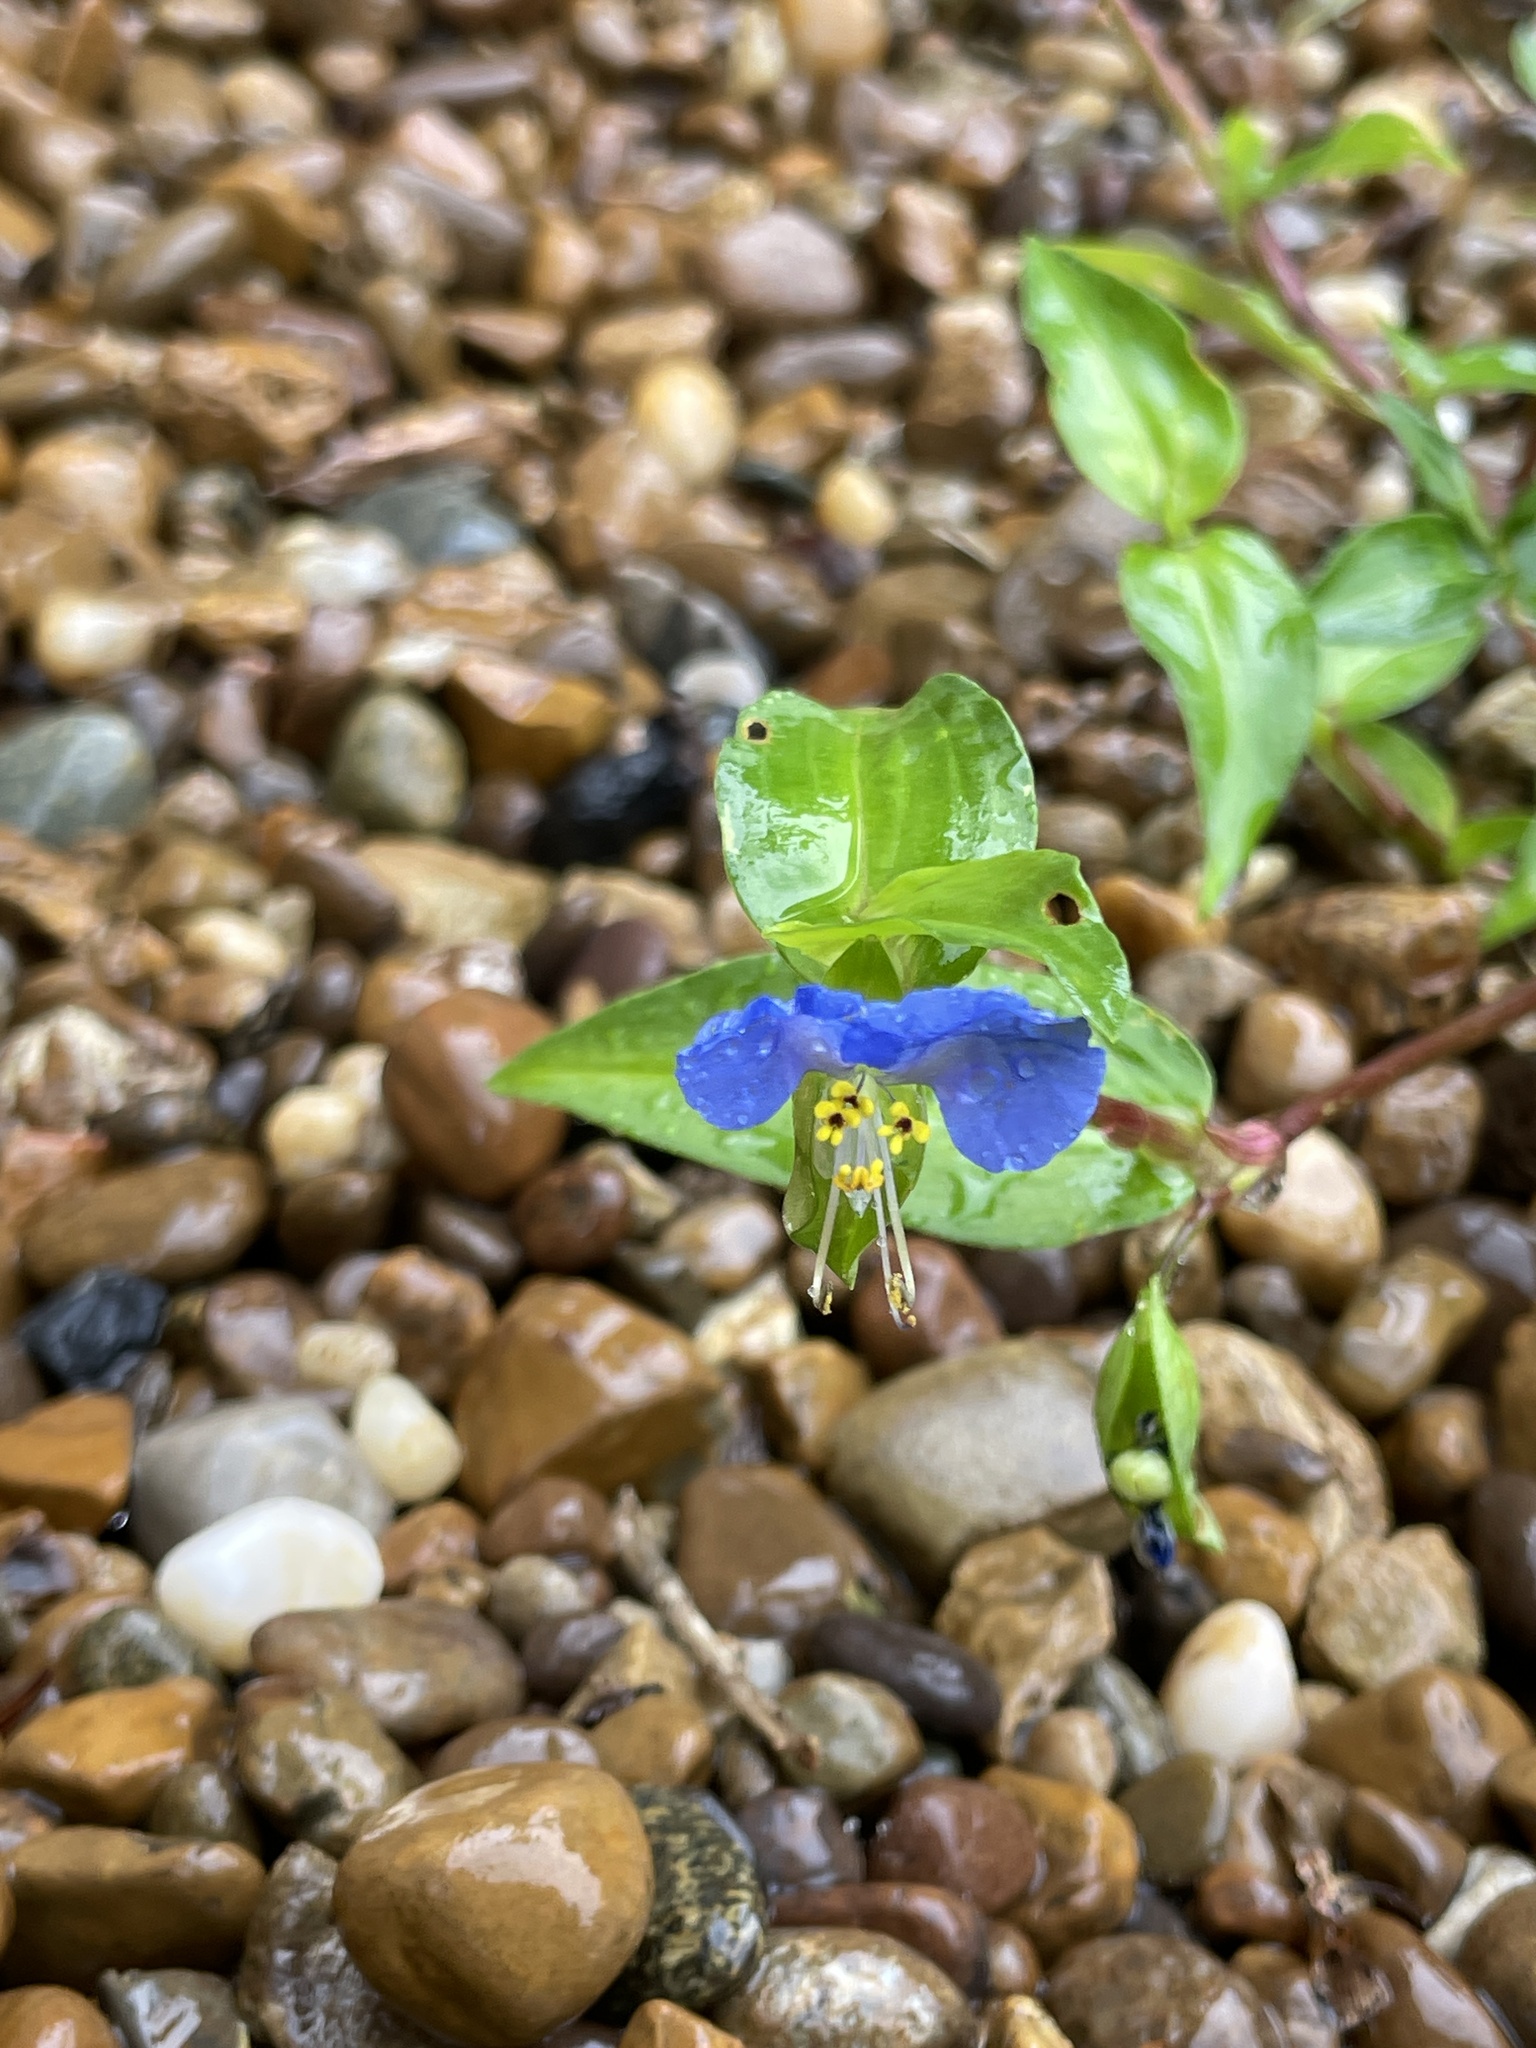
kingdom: Plantae
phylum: Tracheophyta
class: Liliopsida
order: Commelinales
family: Commelinaceae
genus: Commelina
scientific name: Commelina communis
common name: Asiatic dayflower
